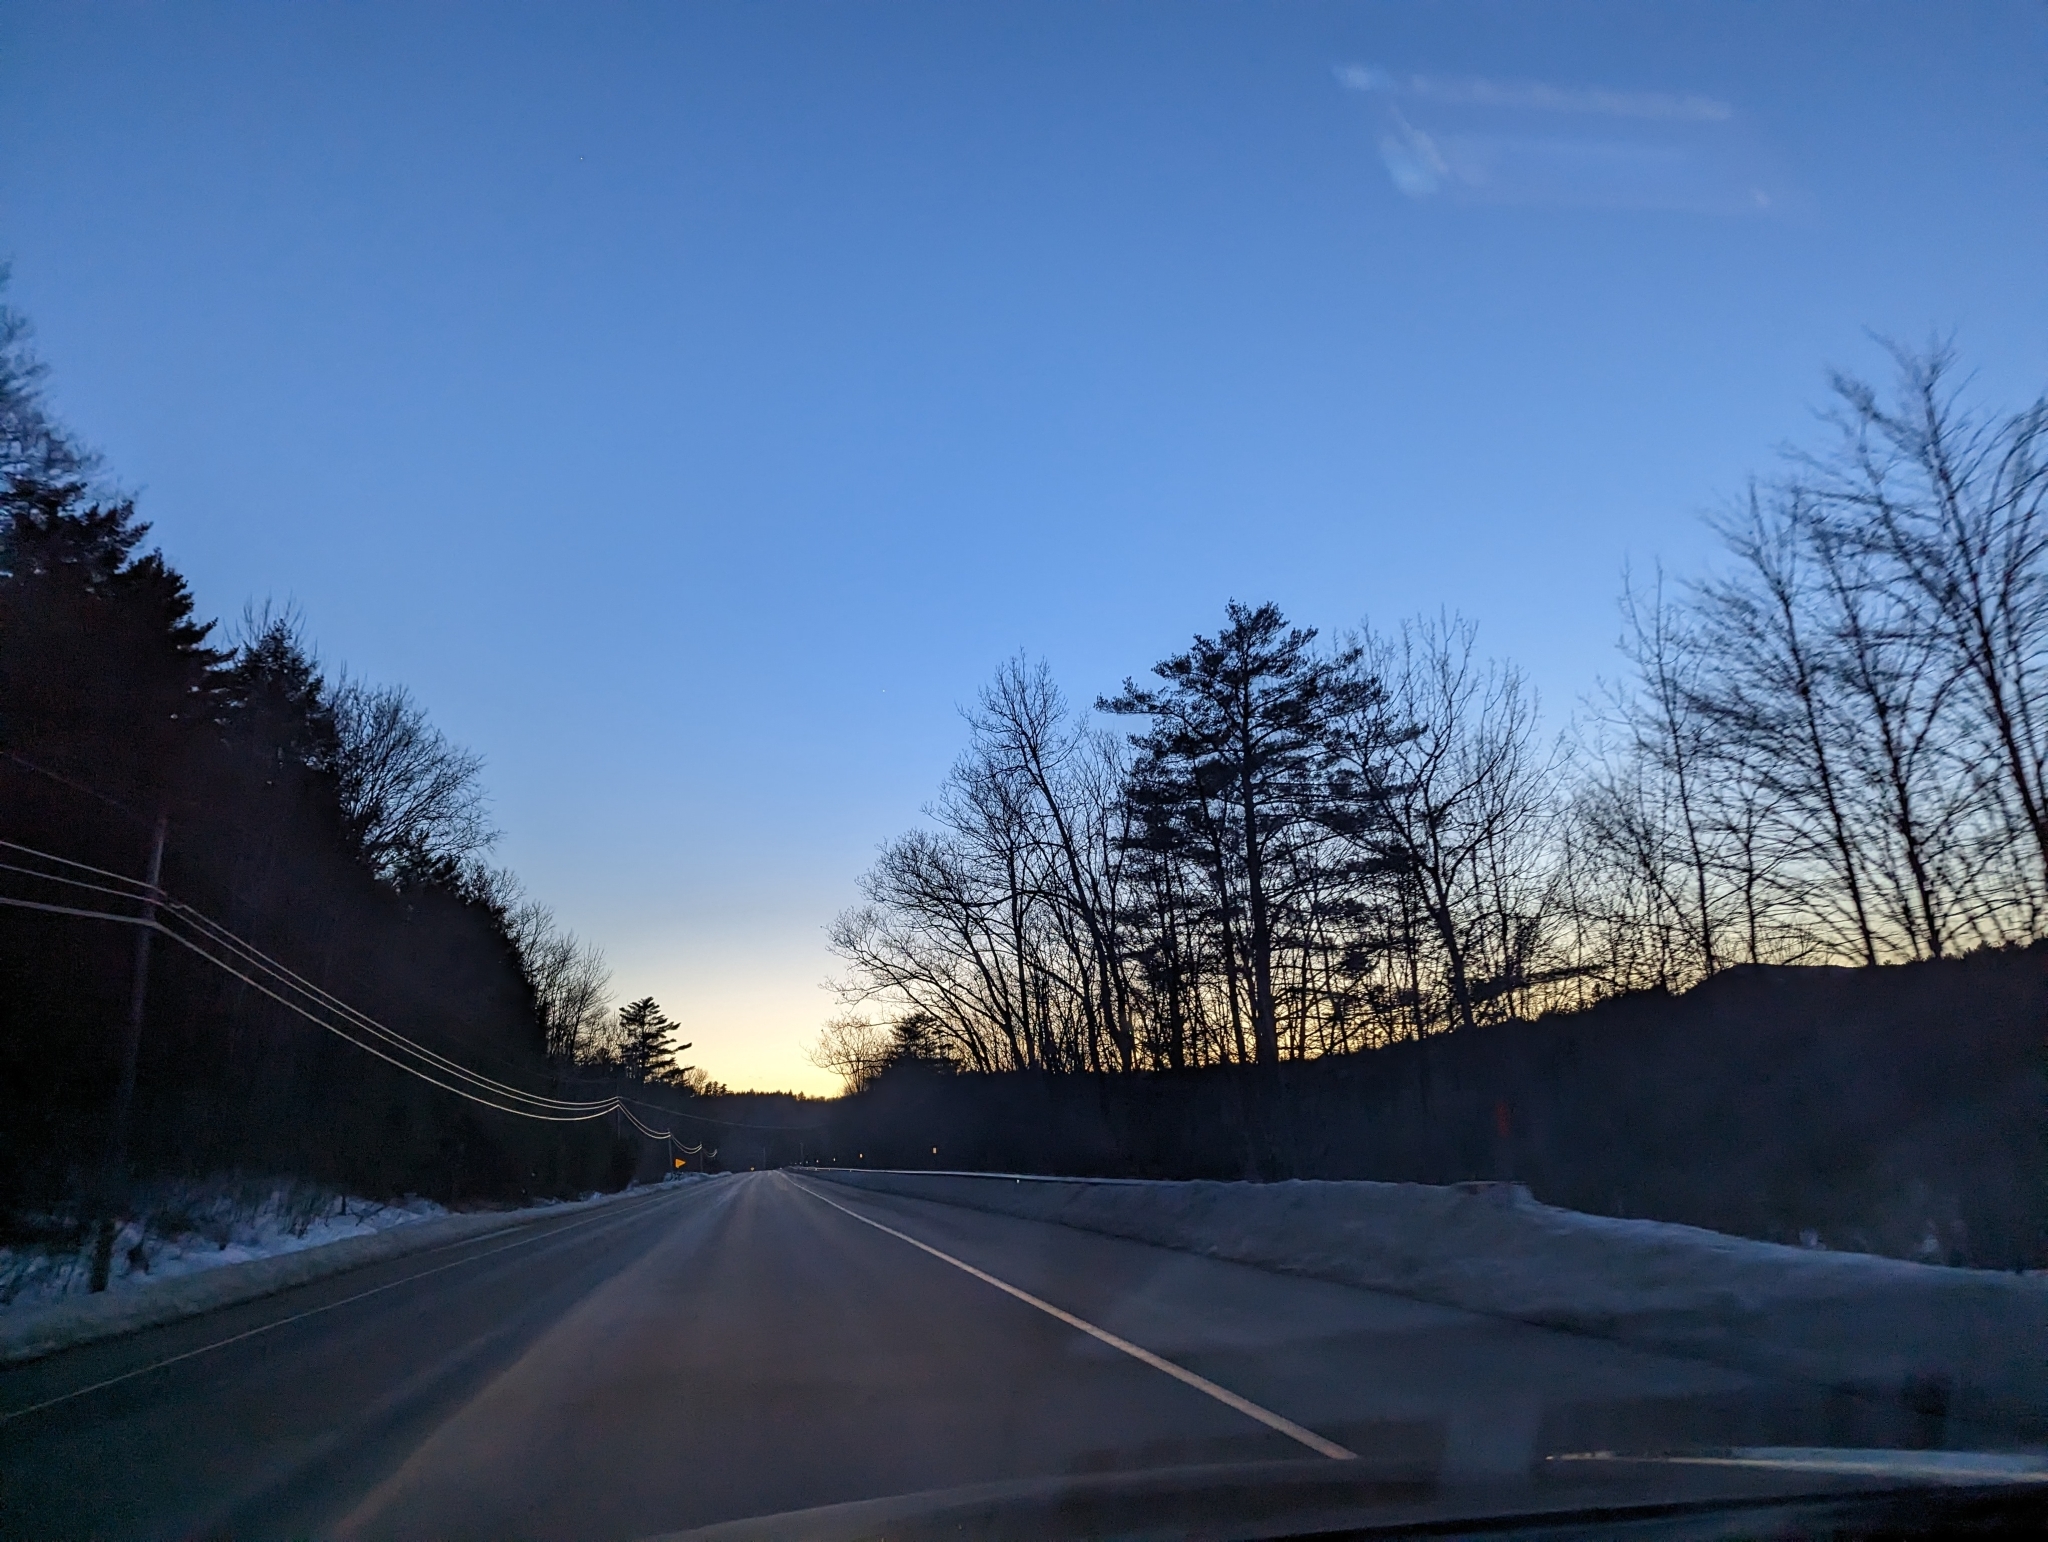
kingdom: Plantae
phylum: Tracheophyta
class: Pinopsida
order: Pinales
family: Pinaceae
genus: Pinus
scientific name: Pinus strobus
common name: Weymouth pine
